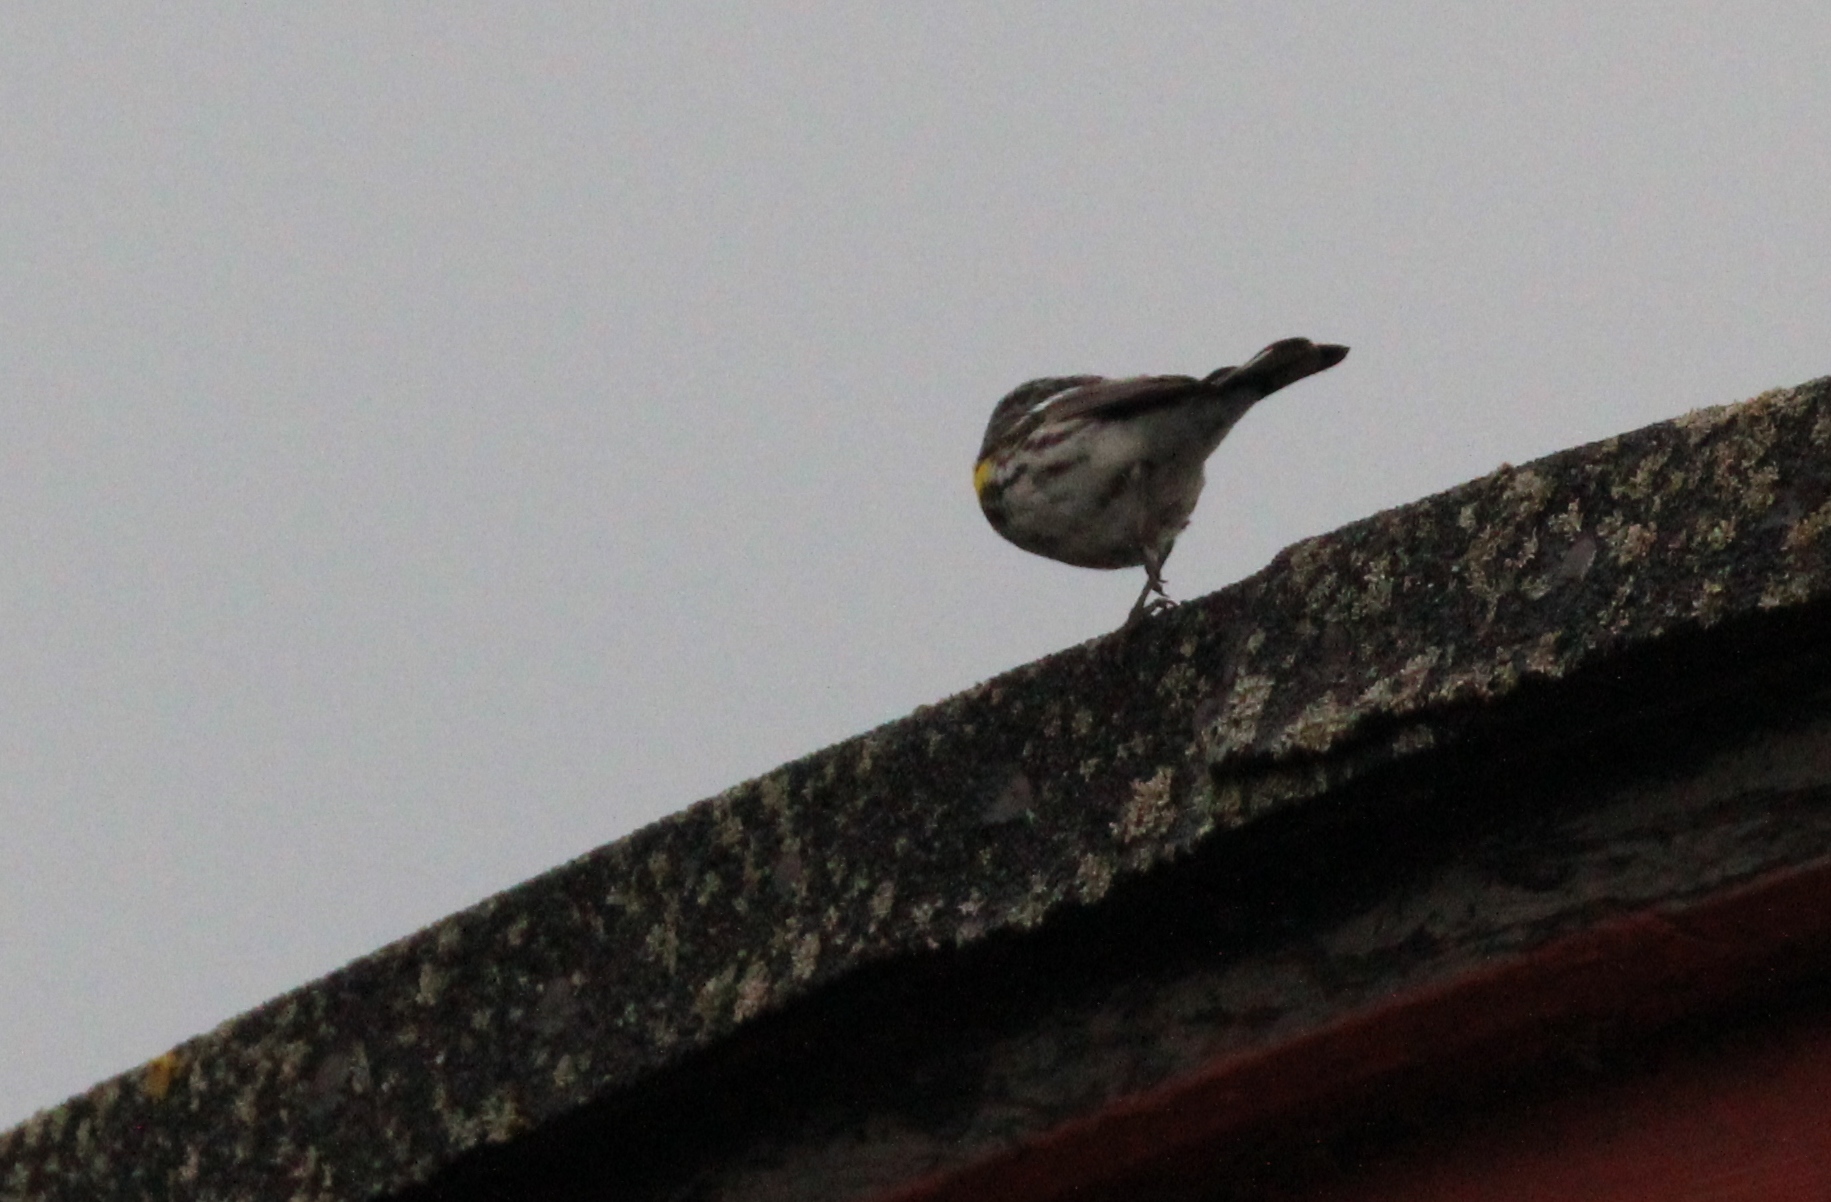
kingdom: Animalia
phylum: Chordata
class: Aves
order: Passeriformes
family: Parulidae
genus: Setophaga
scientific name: Setophaga coronata
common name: Myrtle warbler
